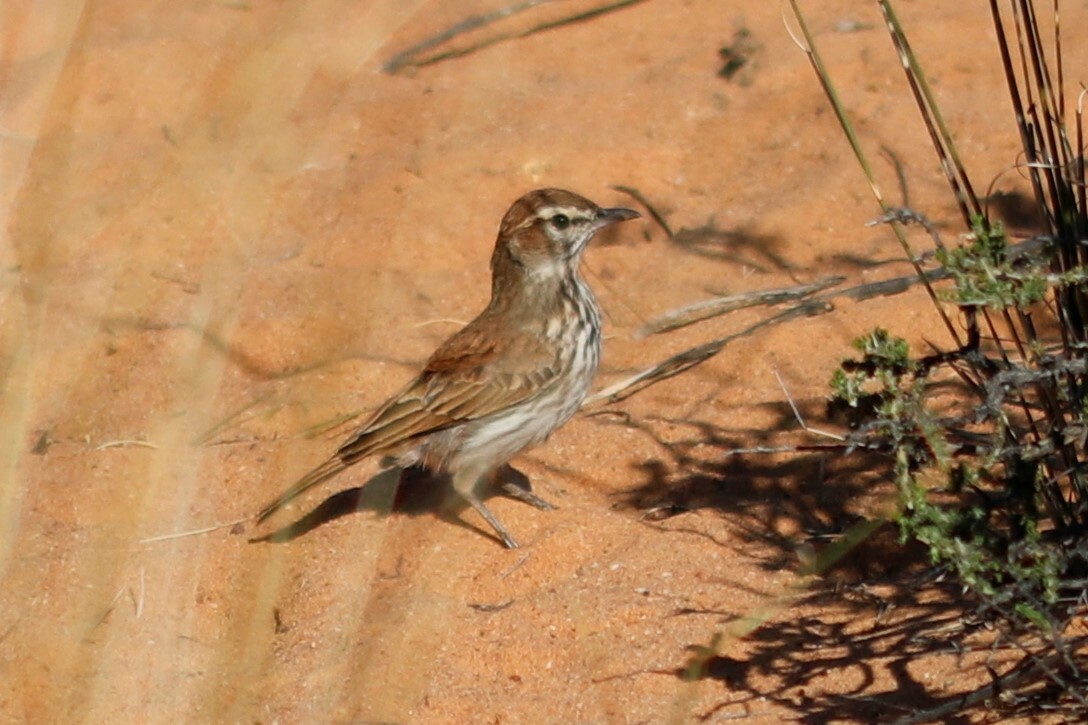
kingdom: Animalia
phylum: Chordata
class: Aves
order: Passeriformes
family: Alaudidae
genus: Calendulauda
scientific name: Calendulauda albescens
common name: Karoo lark
